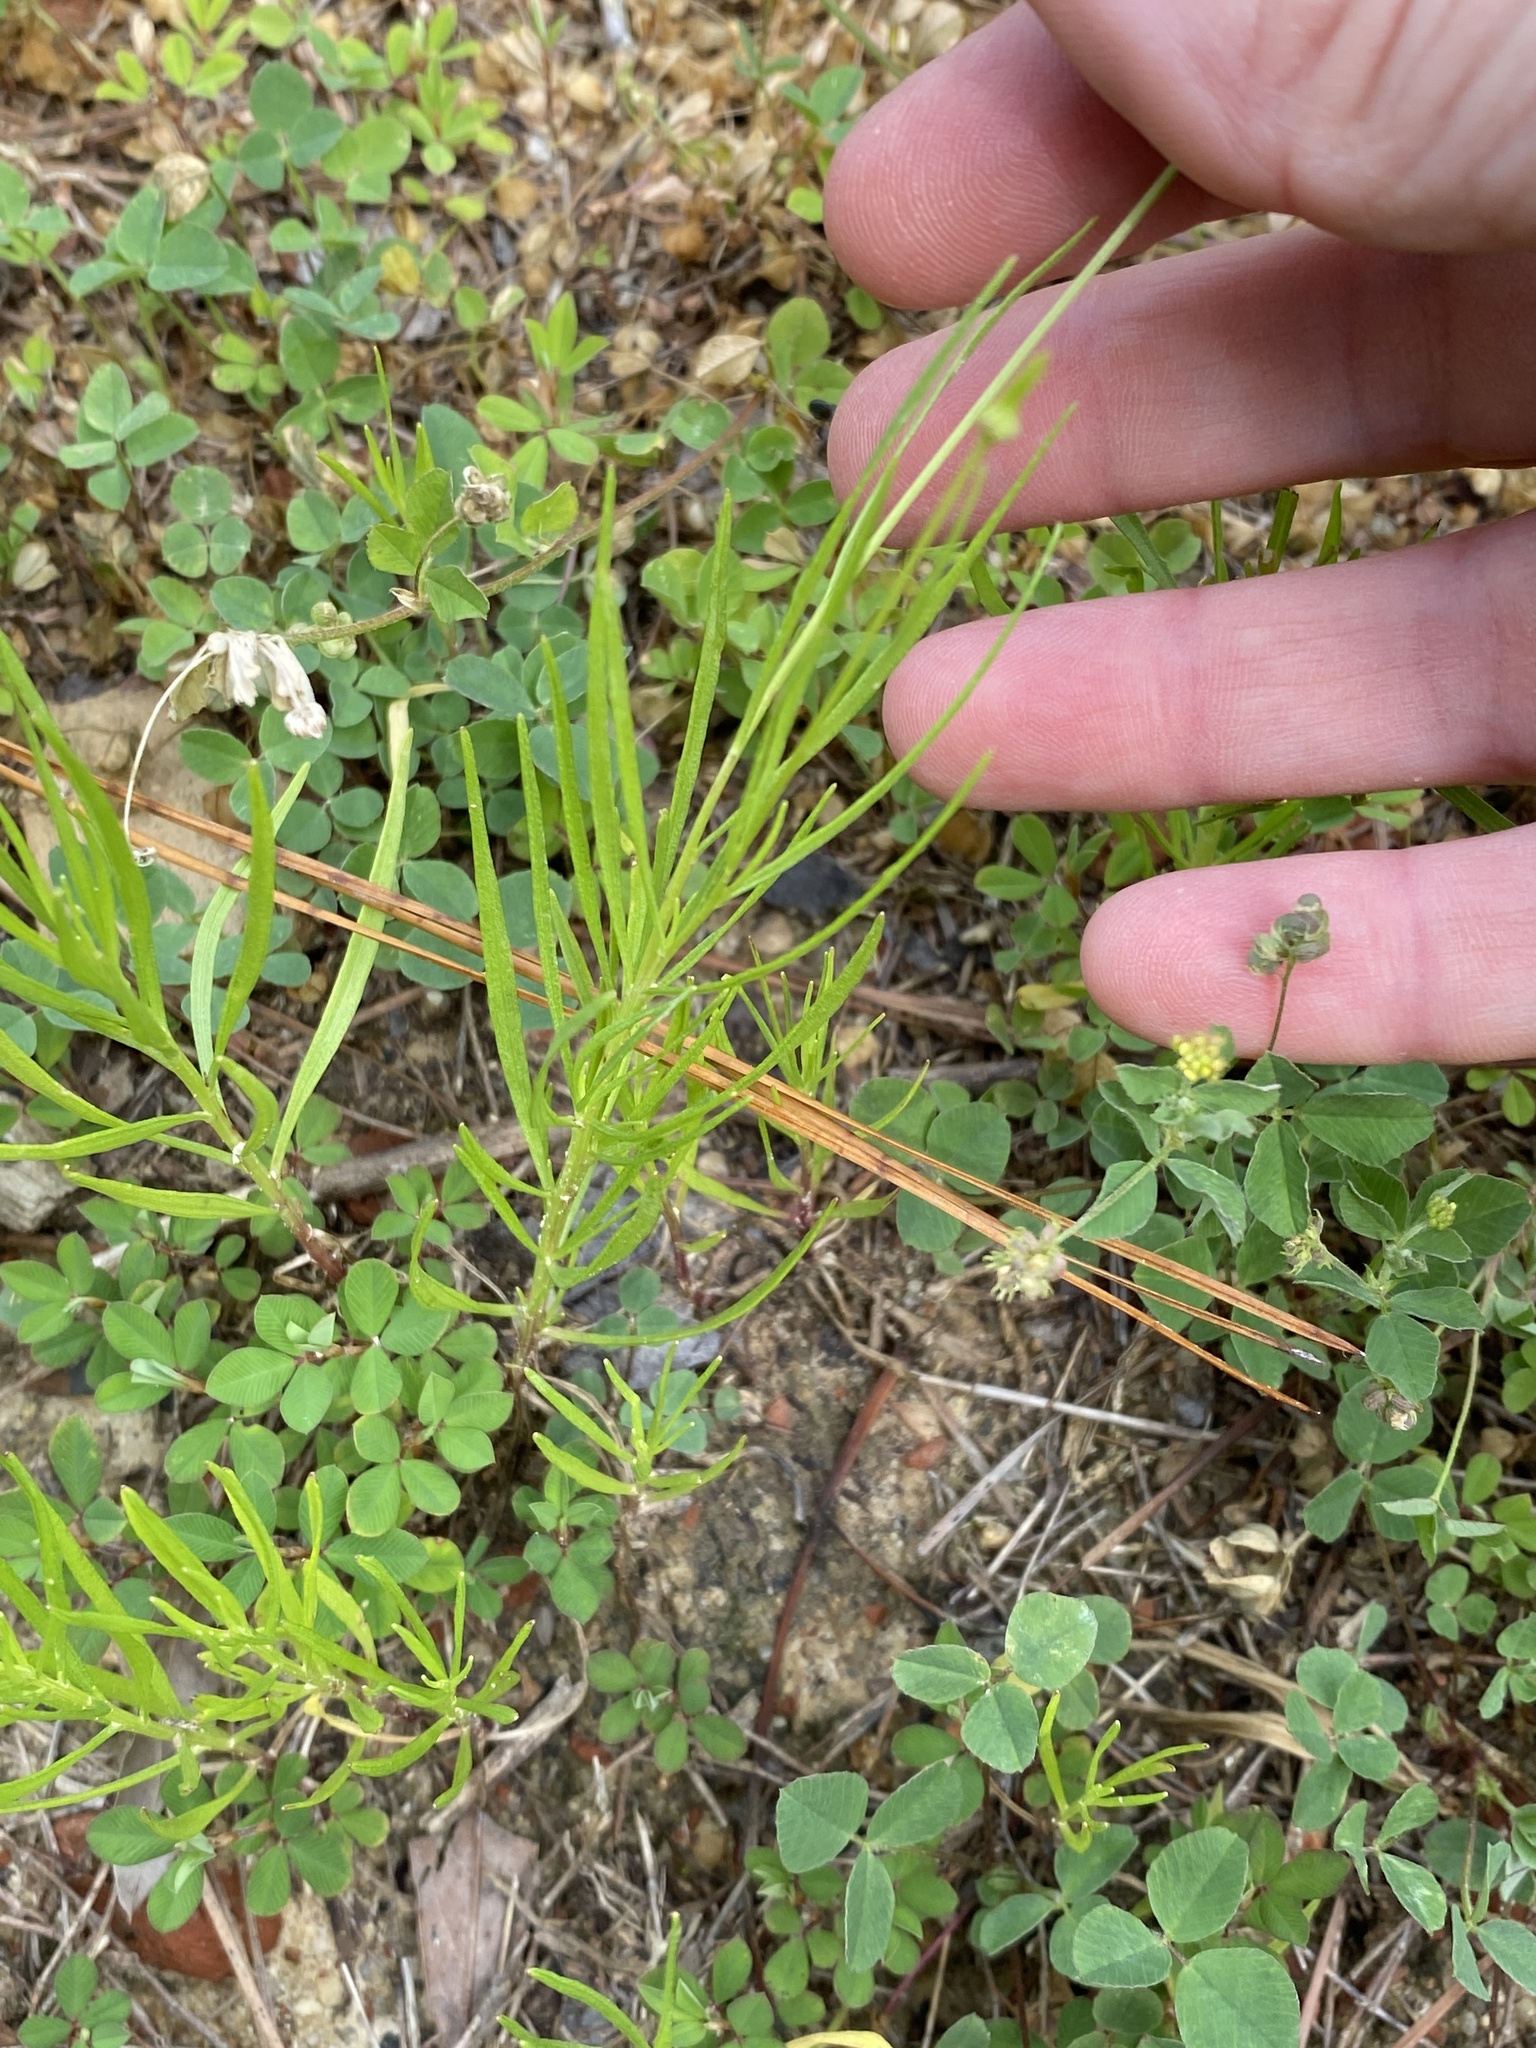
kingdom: Plantae
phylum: Tracheophyta
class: Magnoliopsida
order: Asterales
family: Asteraceae
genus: Helenium
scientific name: Helenium amarum
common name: Bitter sneezeweed
